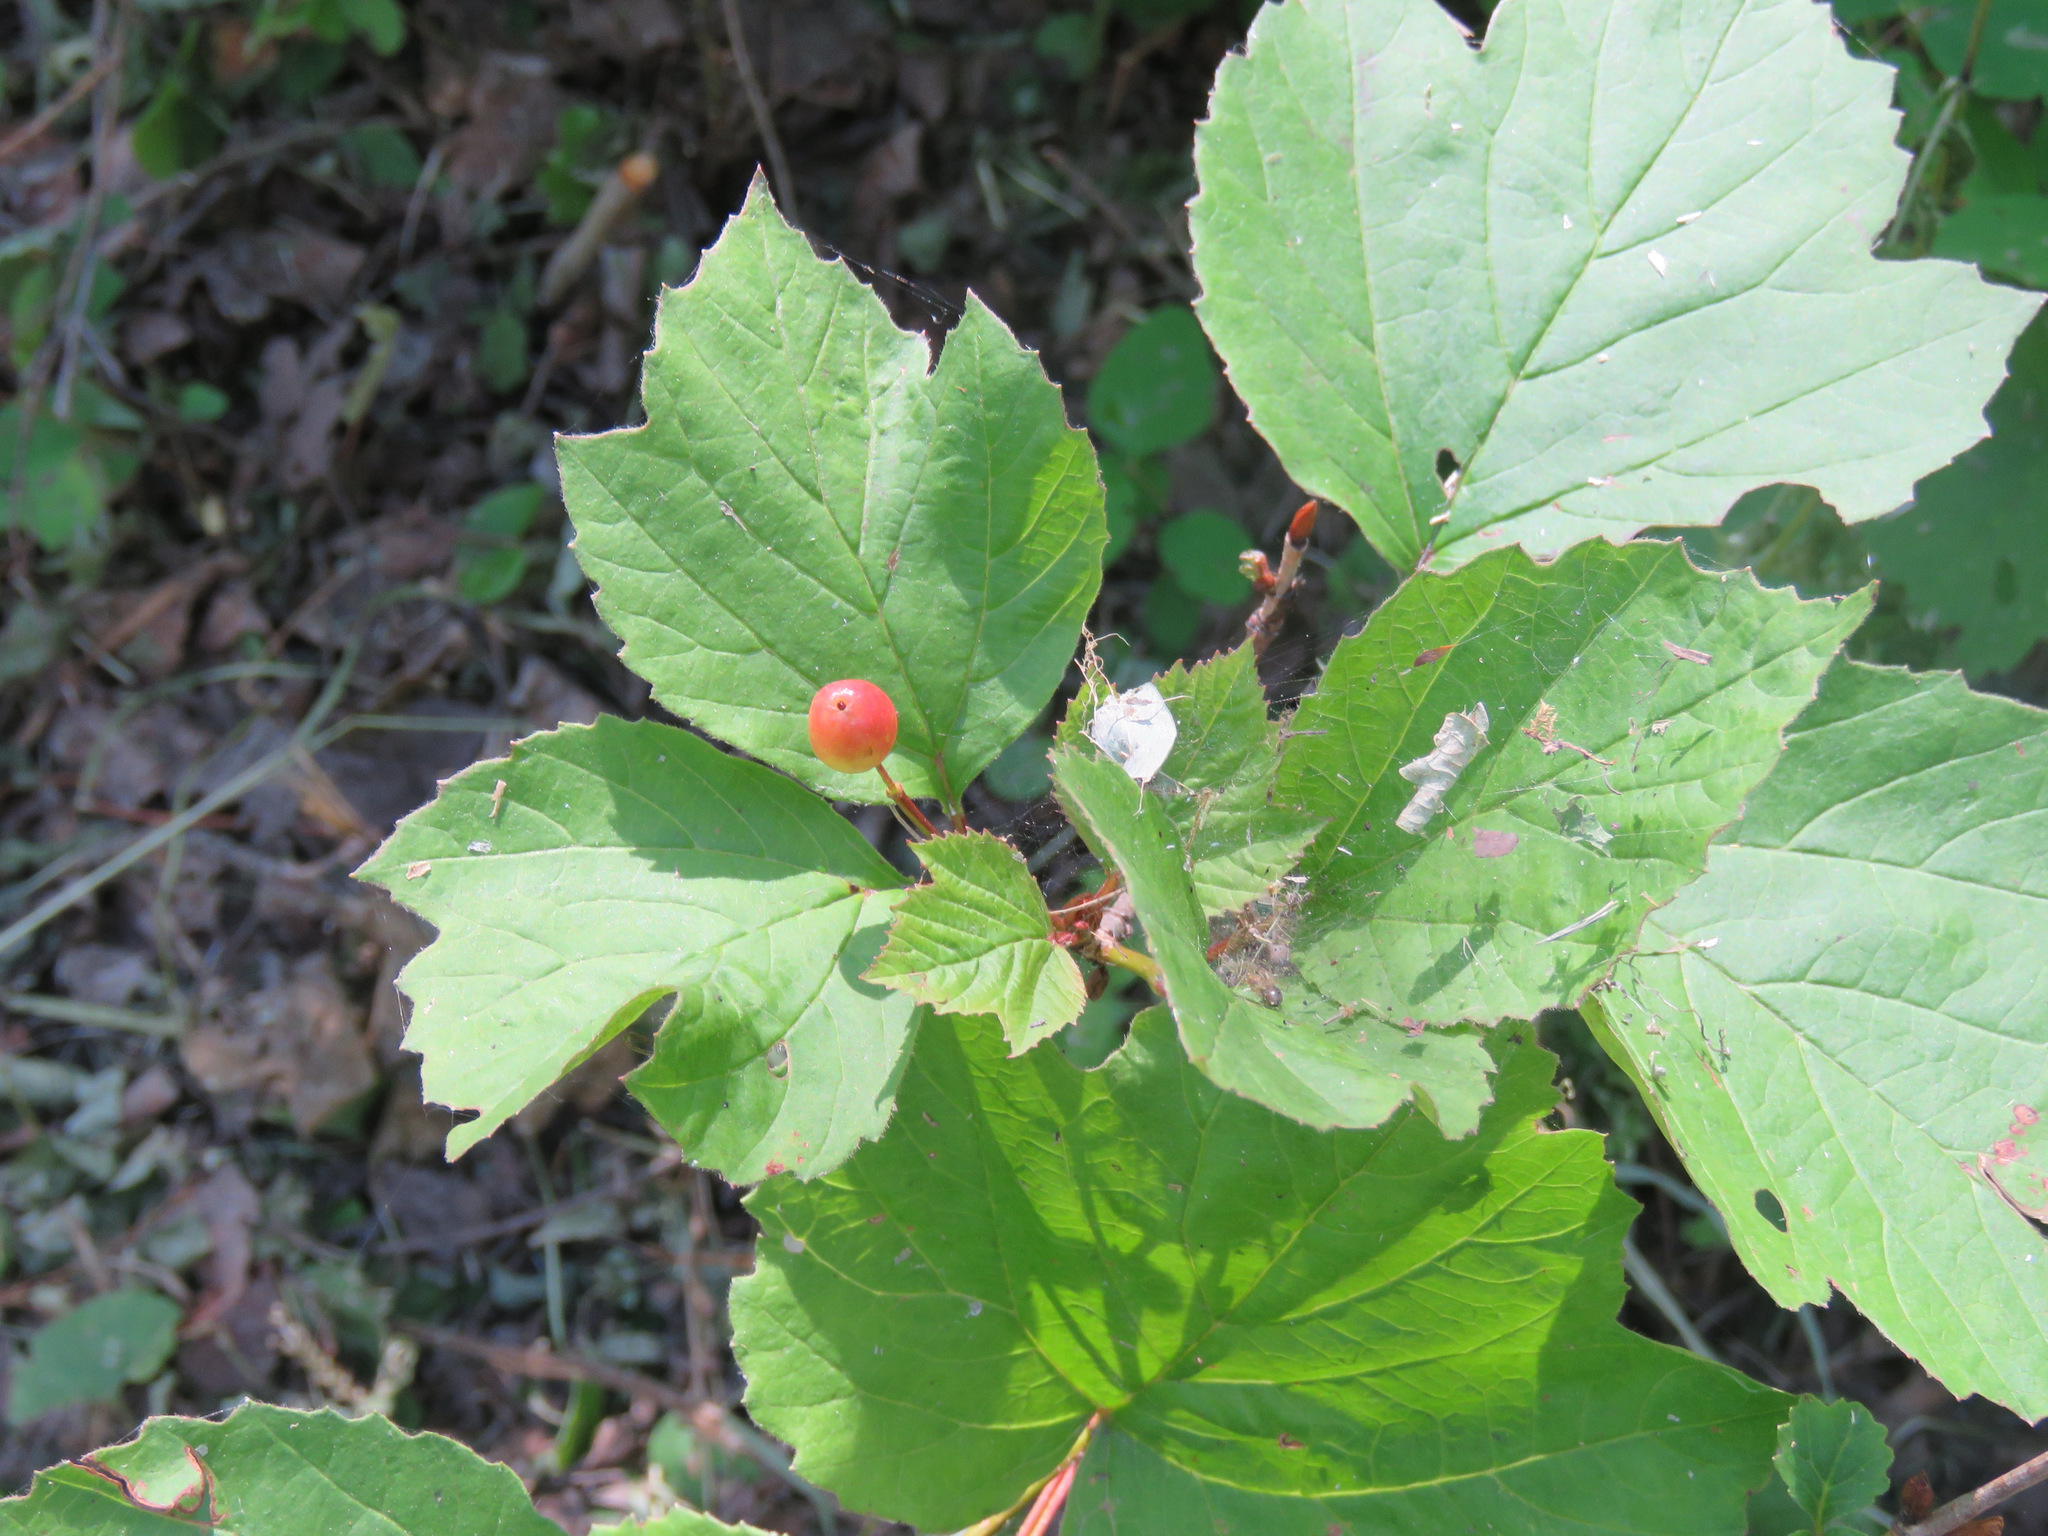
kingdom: Plantae
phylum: Tracheophyta
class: Magnoliopsida
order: Dipsacales
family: Viburnaceae
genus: Viburnum
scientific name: Viburnum edule
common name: Mooseberry
